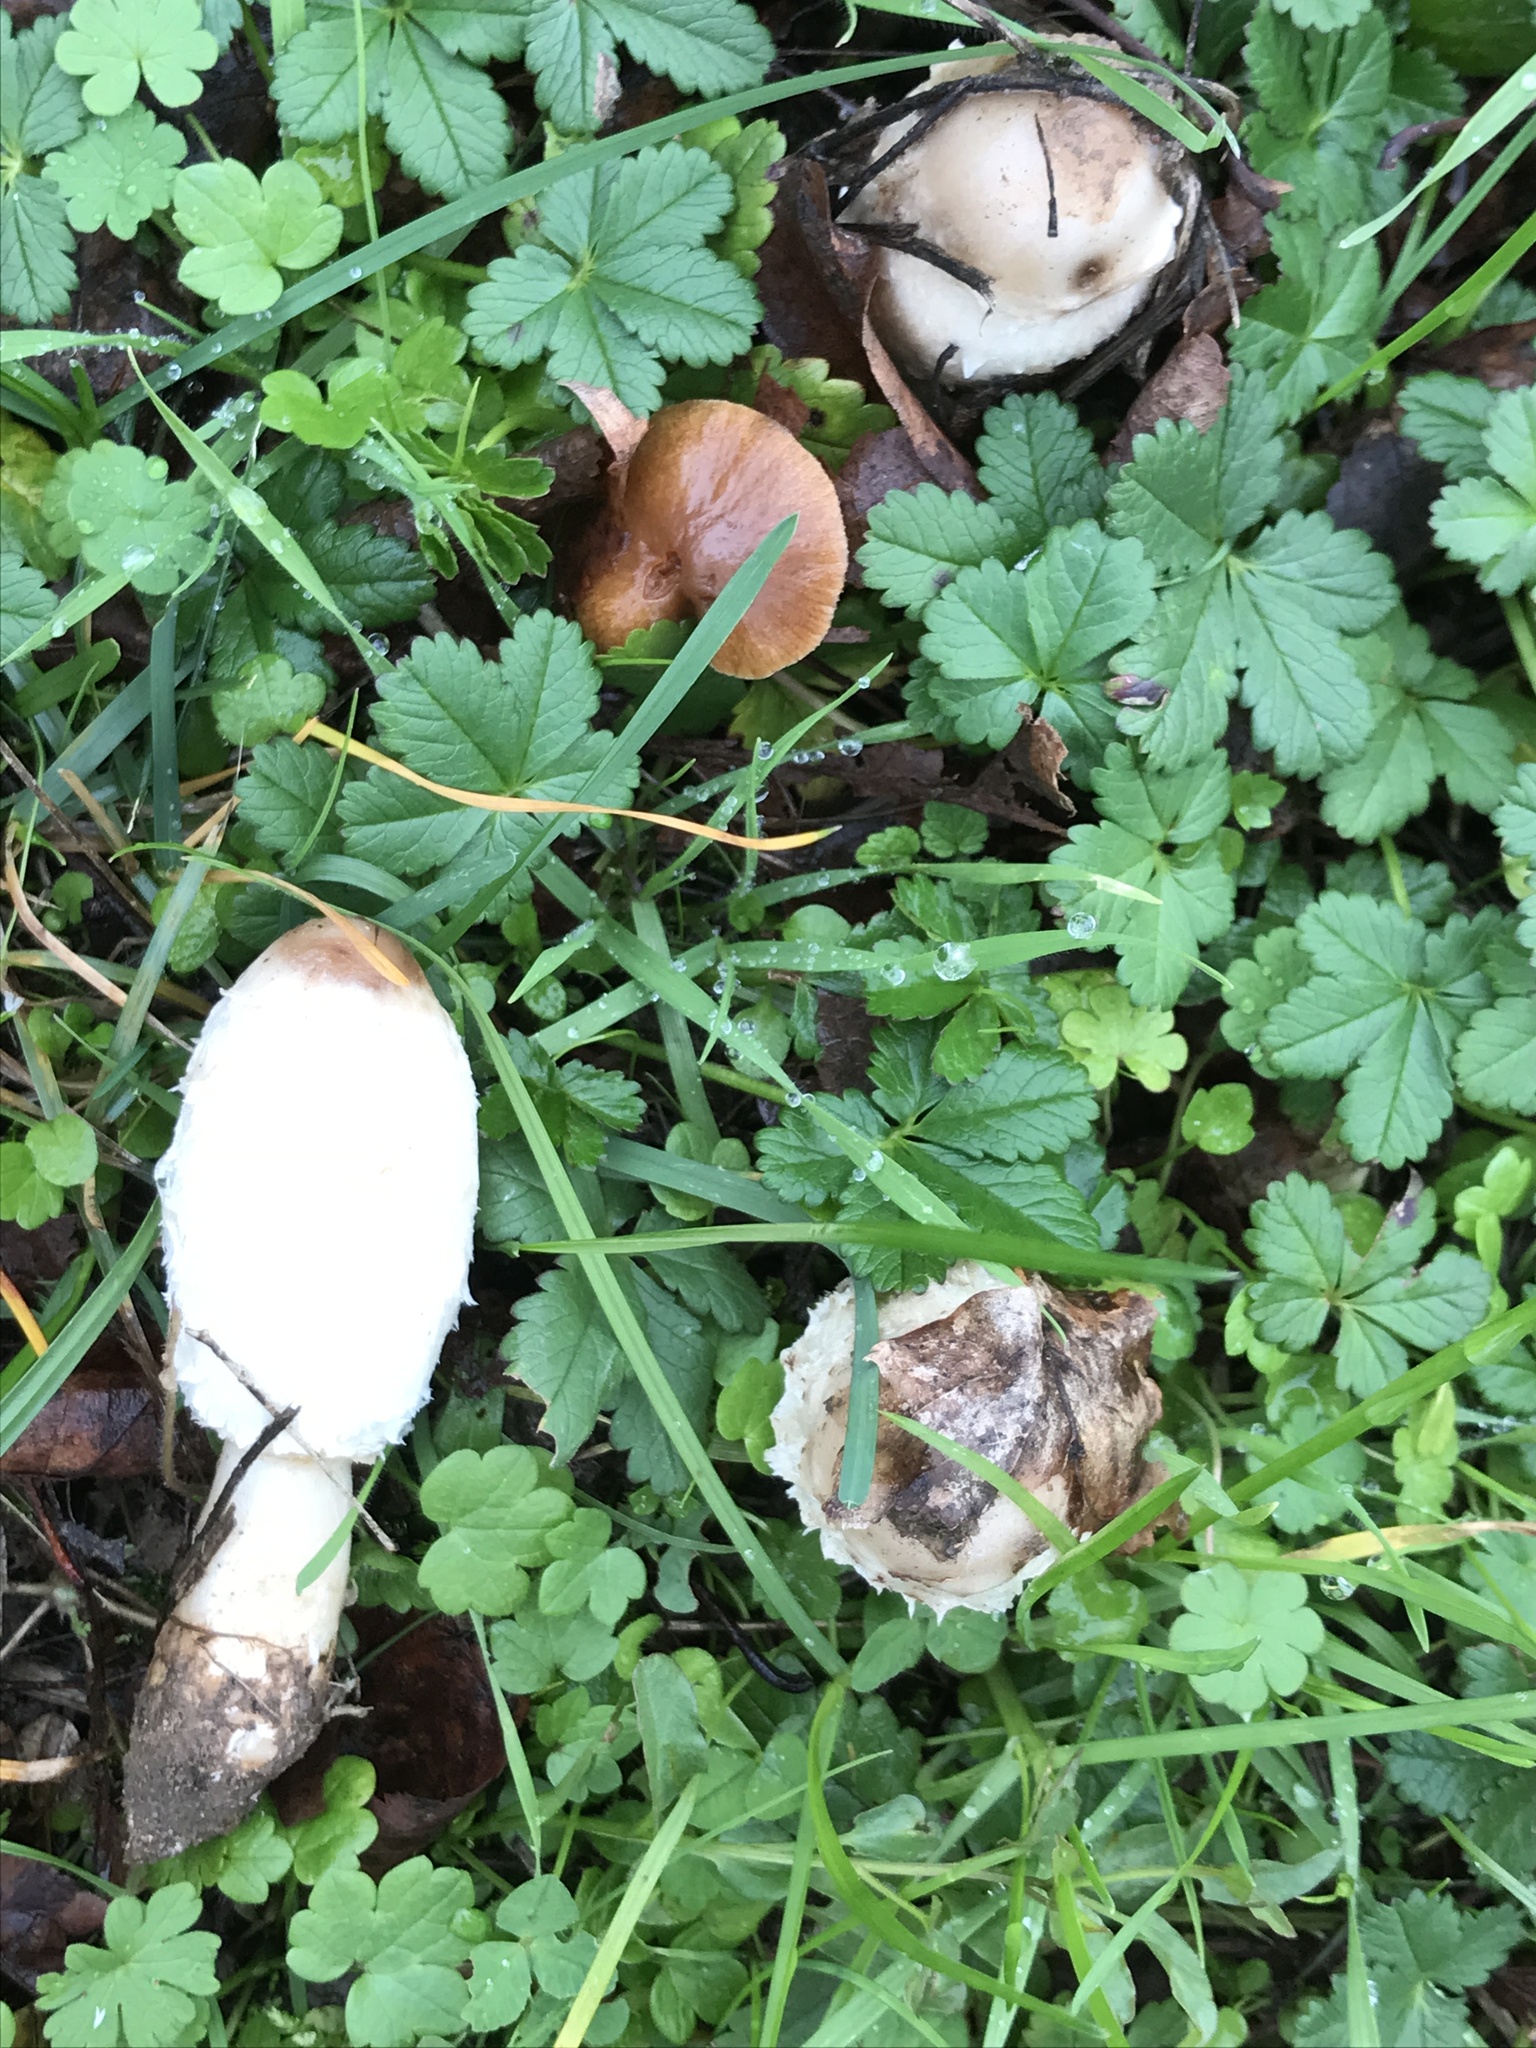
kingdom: Fungi
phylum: Basidiomycota
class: Agaricomycetes
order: Agaricales
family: Agaricaceae
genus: Coprinus
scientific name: Coprinus comatus
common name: Lawyer's wig
